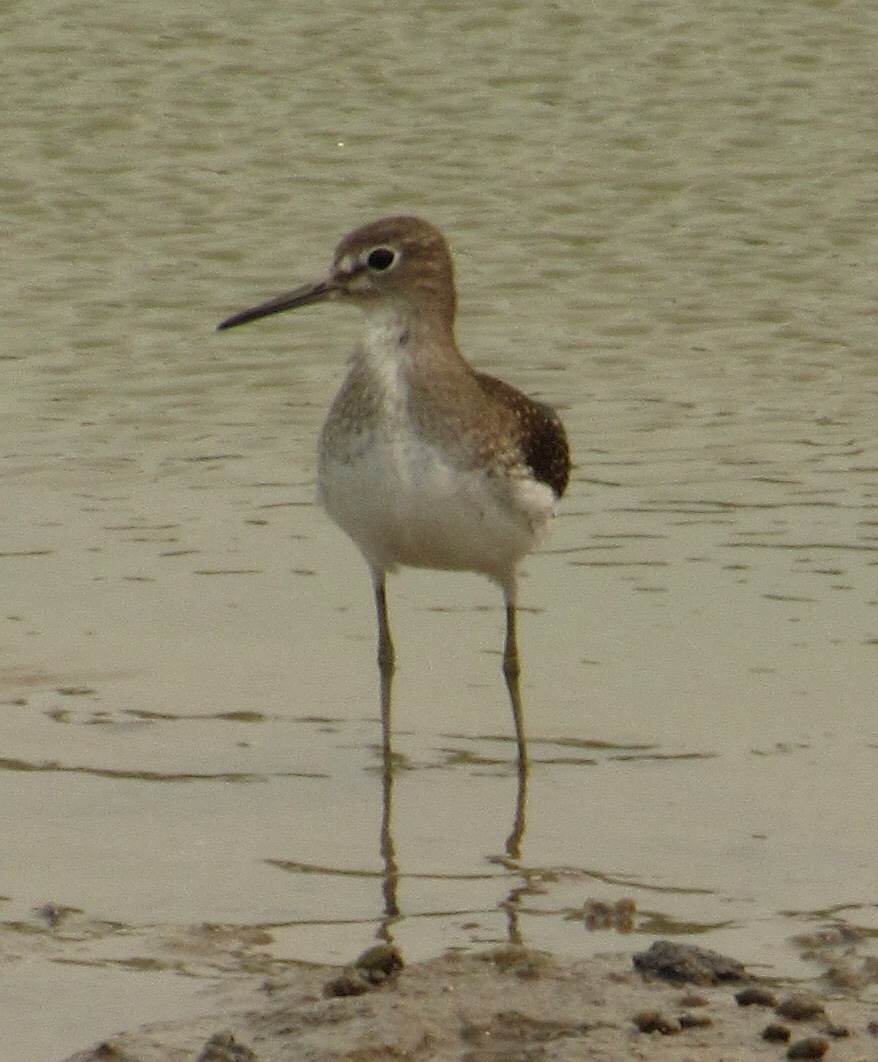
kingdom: Animalia
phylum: Chordata
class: Aves
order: Charadriiformes
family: Scolopacidae
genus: Tringa
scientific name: Tringa solitaria
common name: Solitary sandpiper
